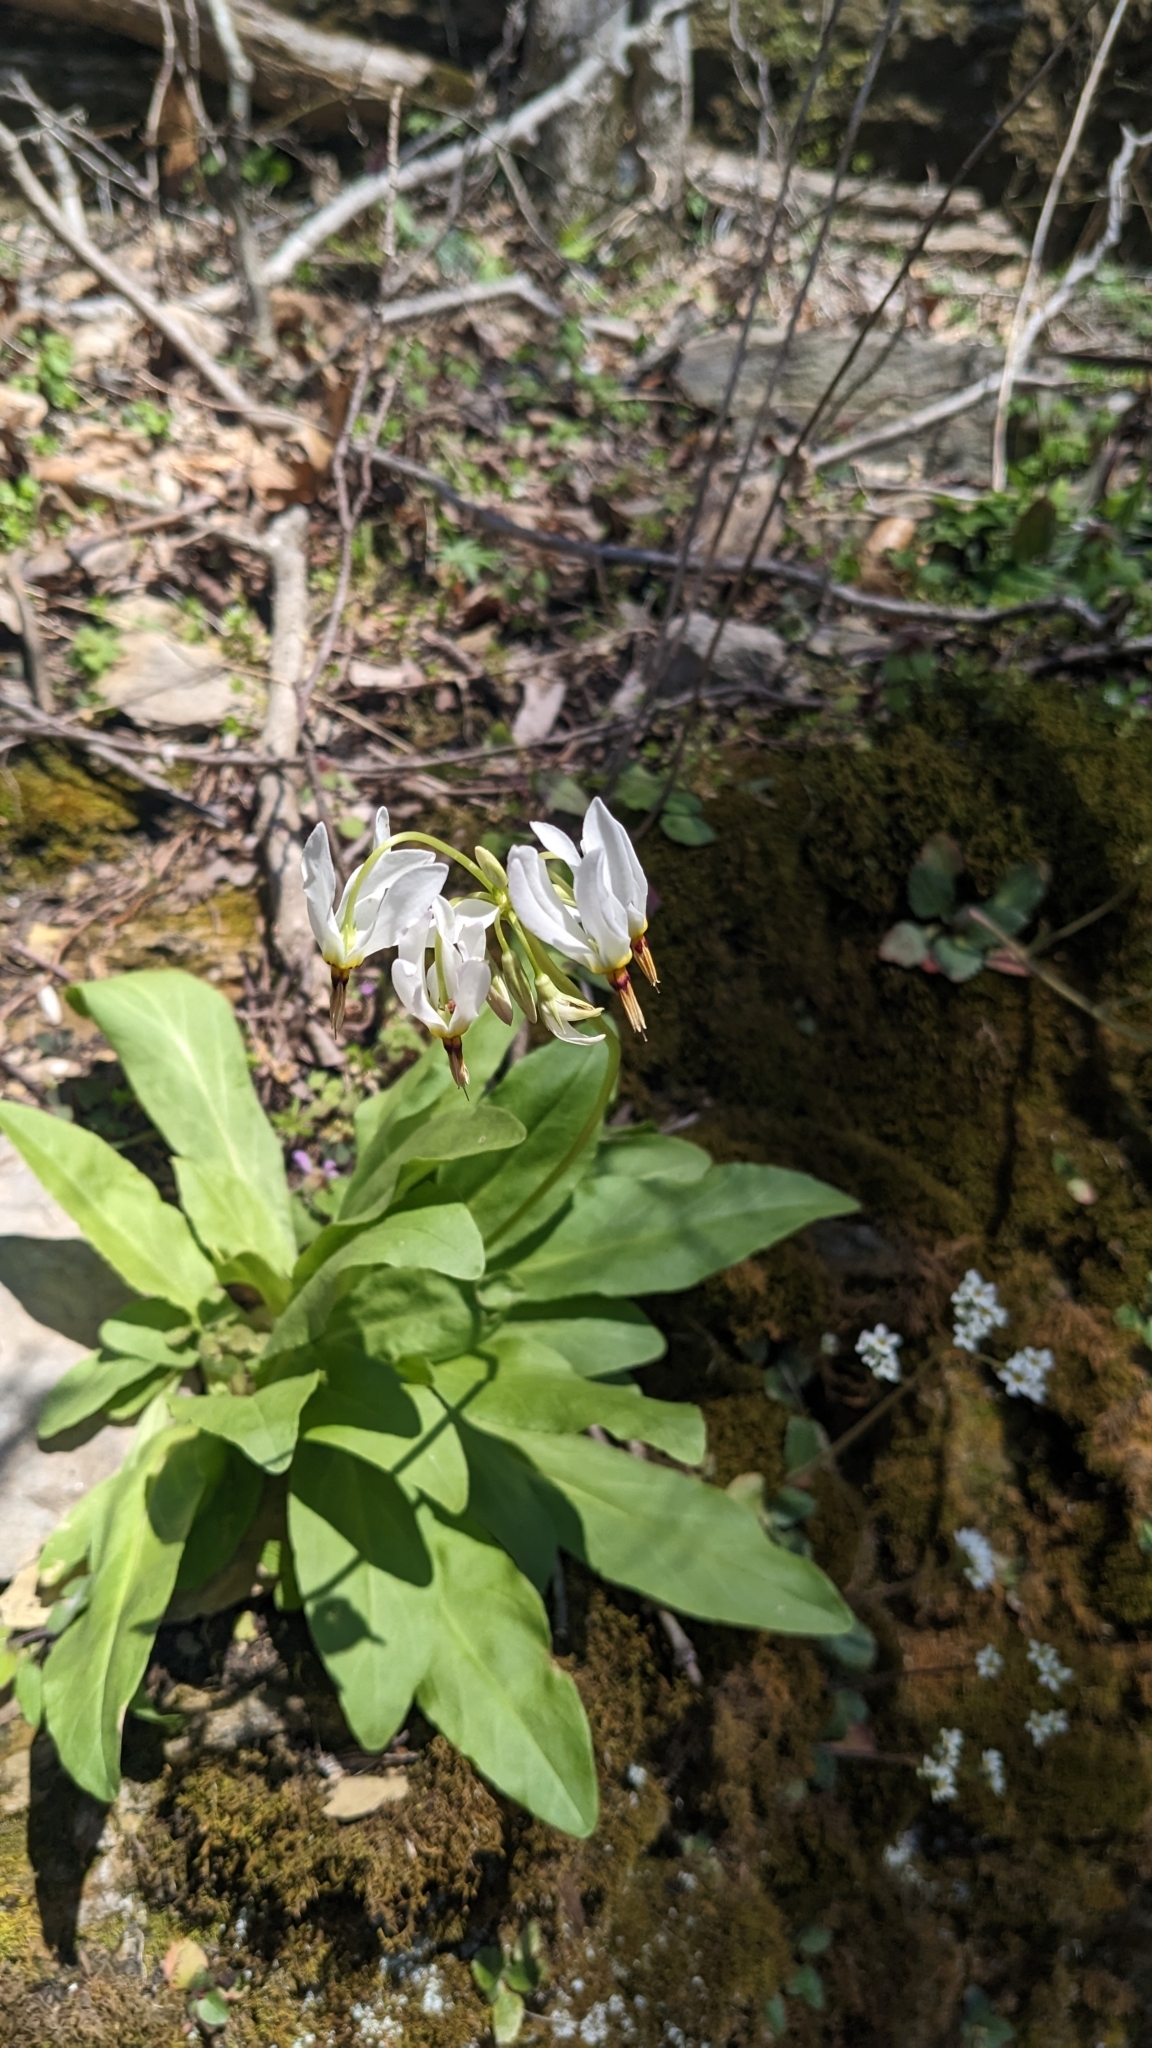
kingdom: Plantae
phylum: Tracheophyta
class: Magnoliopsida
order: Ericales
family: Primulaceae
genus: Dodecatheon
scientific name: Dodecatheon meadia
